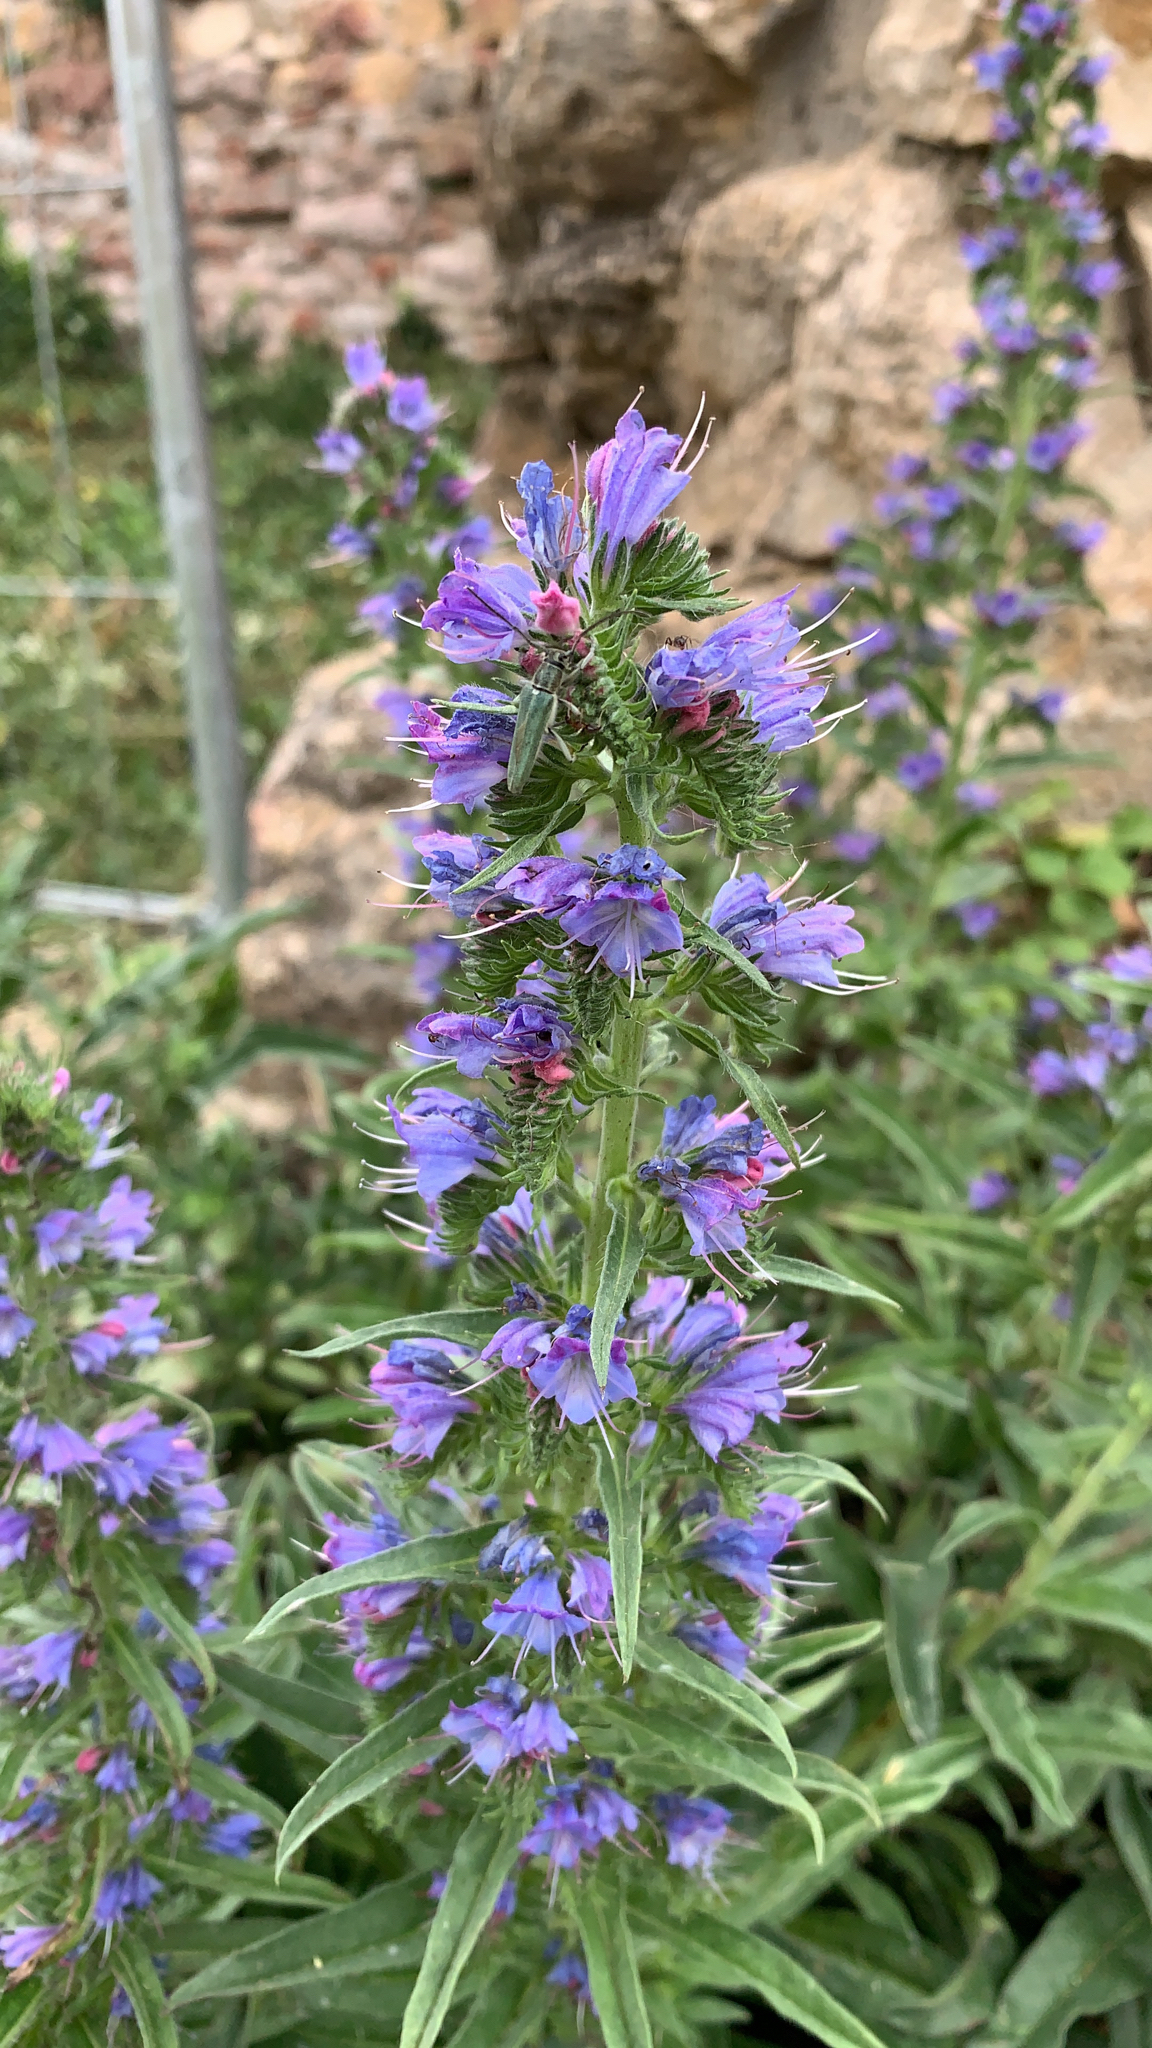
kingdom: Plantae
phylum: Tracheophyta
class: Magnoliopsida
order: Boraginales
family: Boraginaceae
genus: Echium
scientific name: Echium vulgare
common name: Common viper's bugloss
